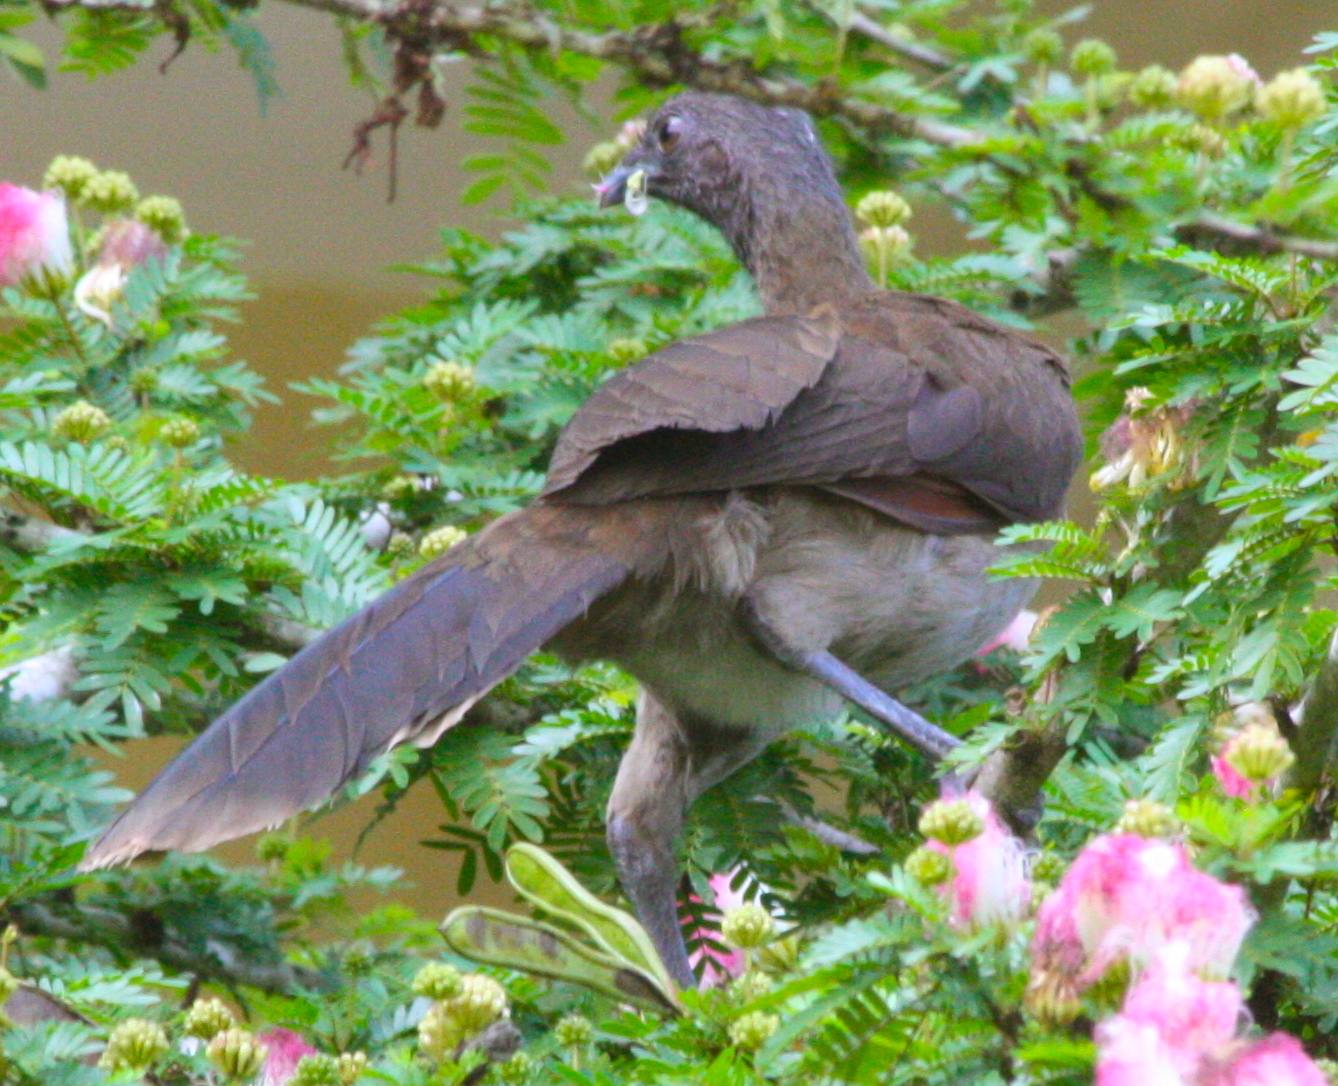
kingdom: Animalia
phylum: Chordata
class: Aves
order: Galliformes
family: Cracidae
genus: Ortalis
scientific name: Ortalis cinereiceps
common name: Grey-headed chachalaca
